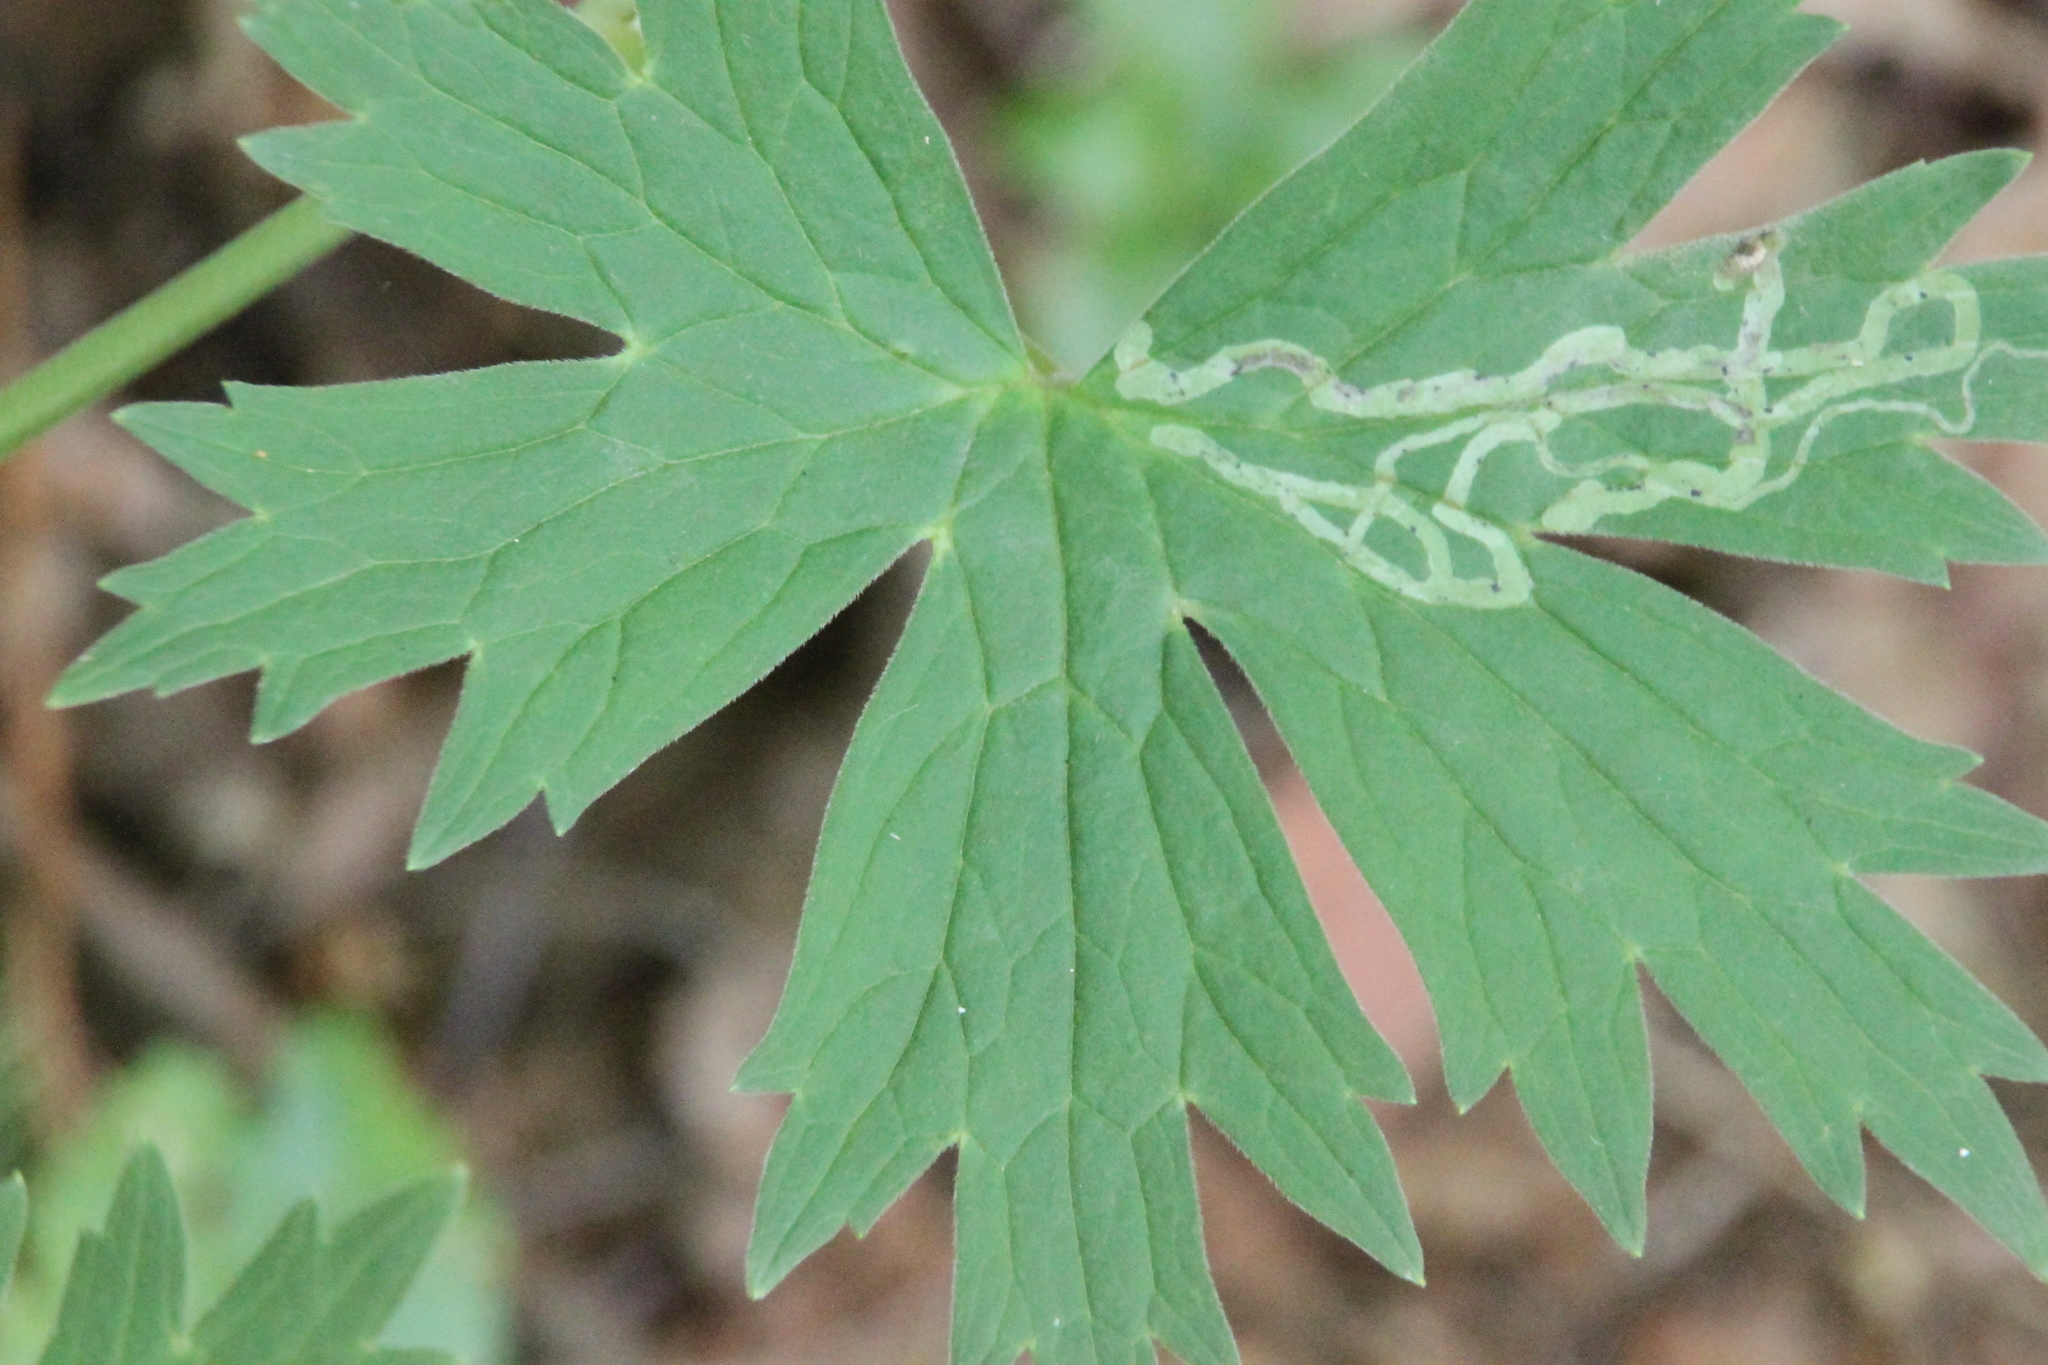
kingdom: Plantae
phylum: Tracheophyta
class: Magnoliopsida
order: Ranunculales
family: Ranunculaceae
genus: Aconitum
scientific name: Aconitum lasiostomum
